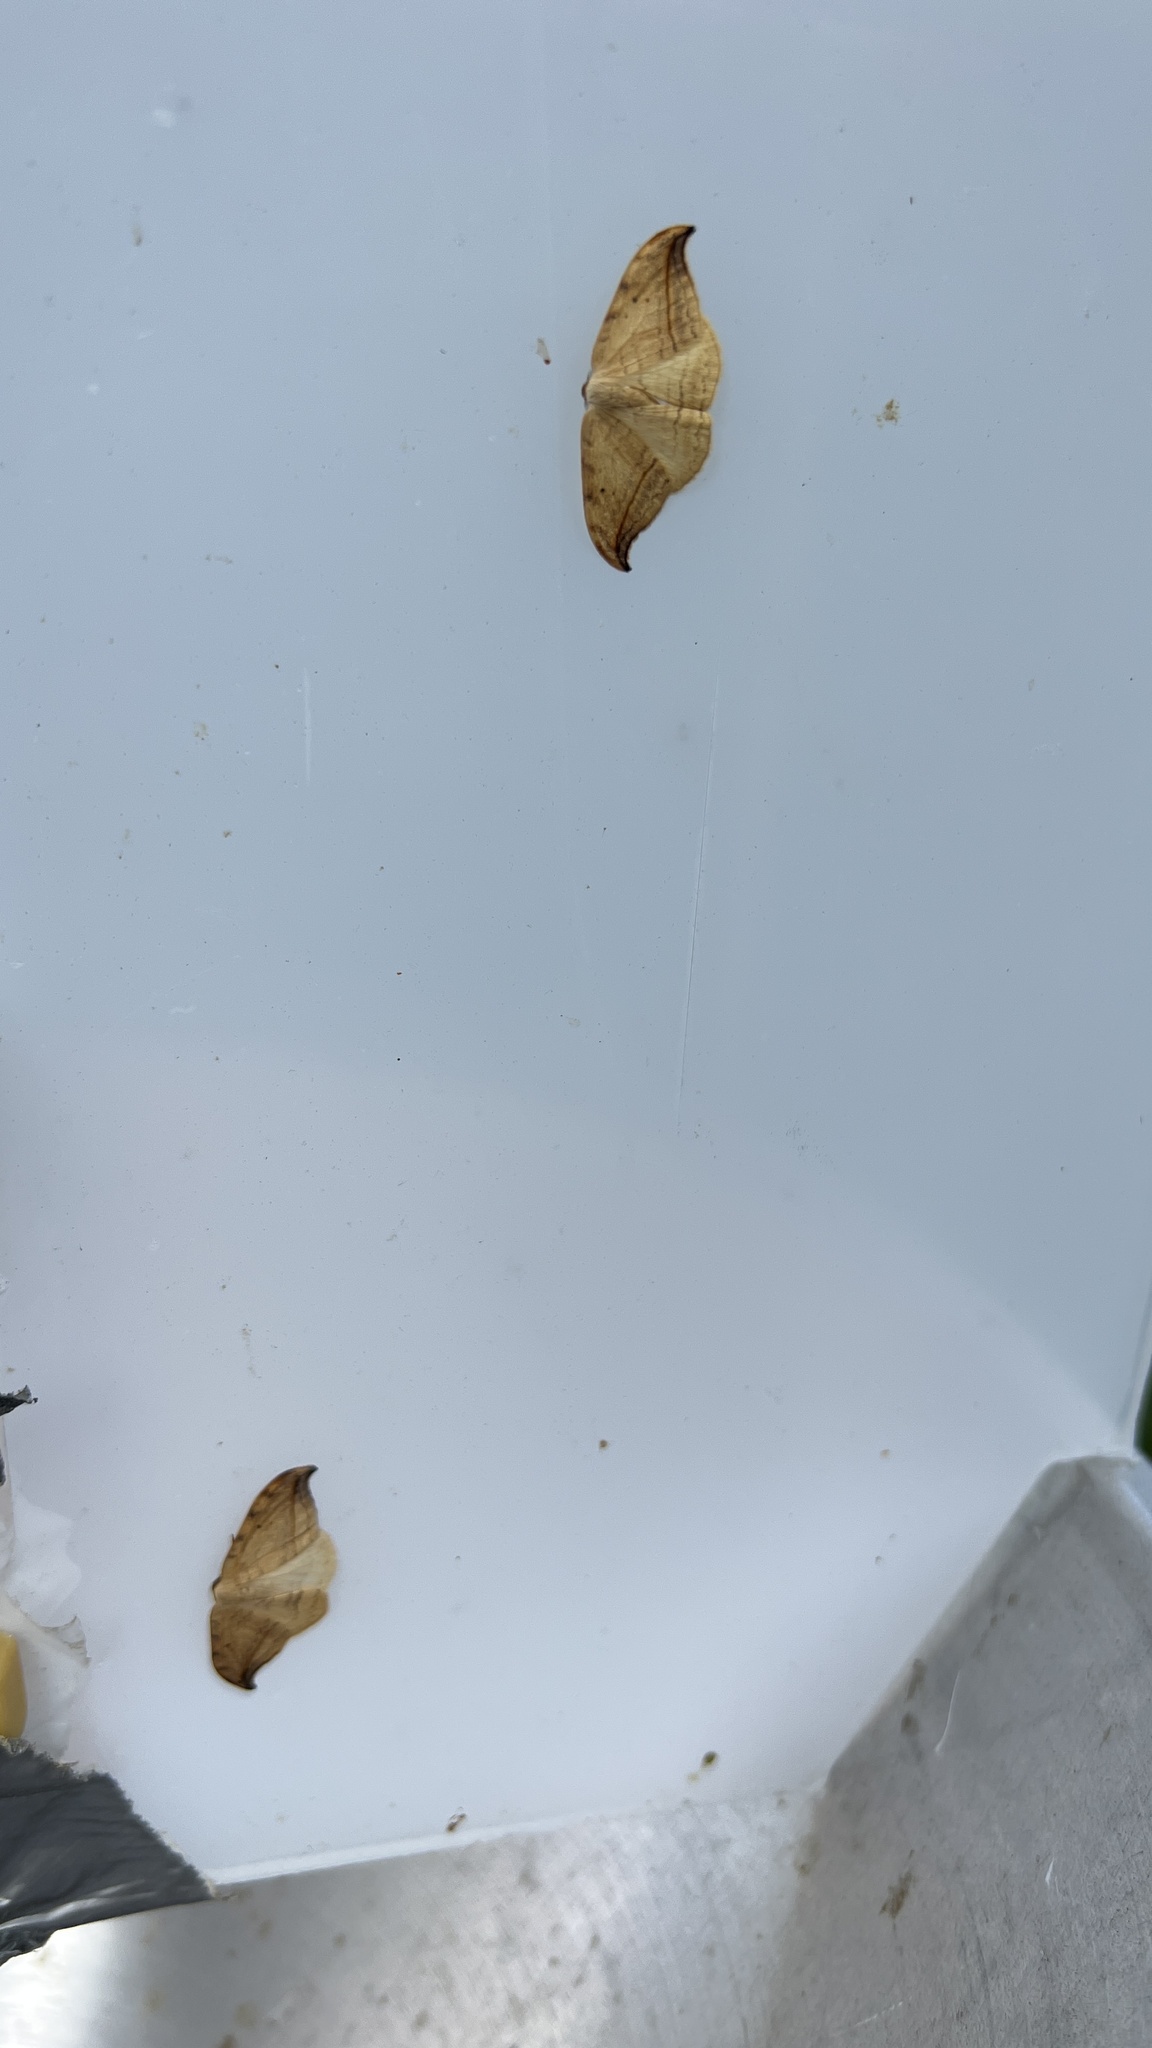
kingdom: Animalia
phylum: Arthropoda
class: Insecta
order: Lepidoptera
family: Drepanidae
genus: Drepana
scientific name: Drepana arcuata
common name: Arched hooktip moth
